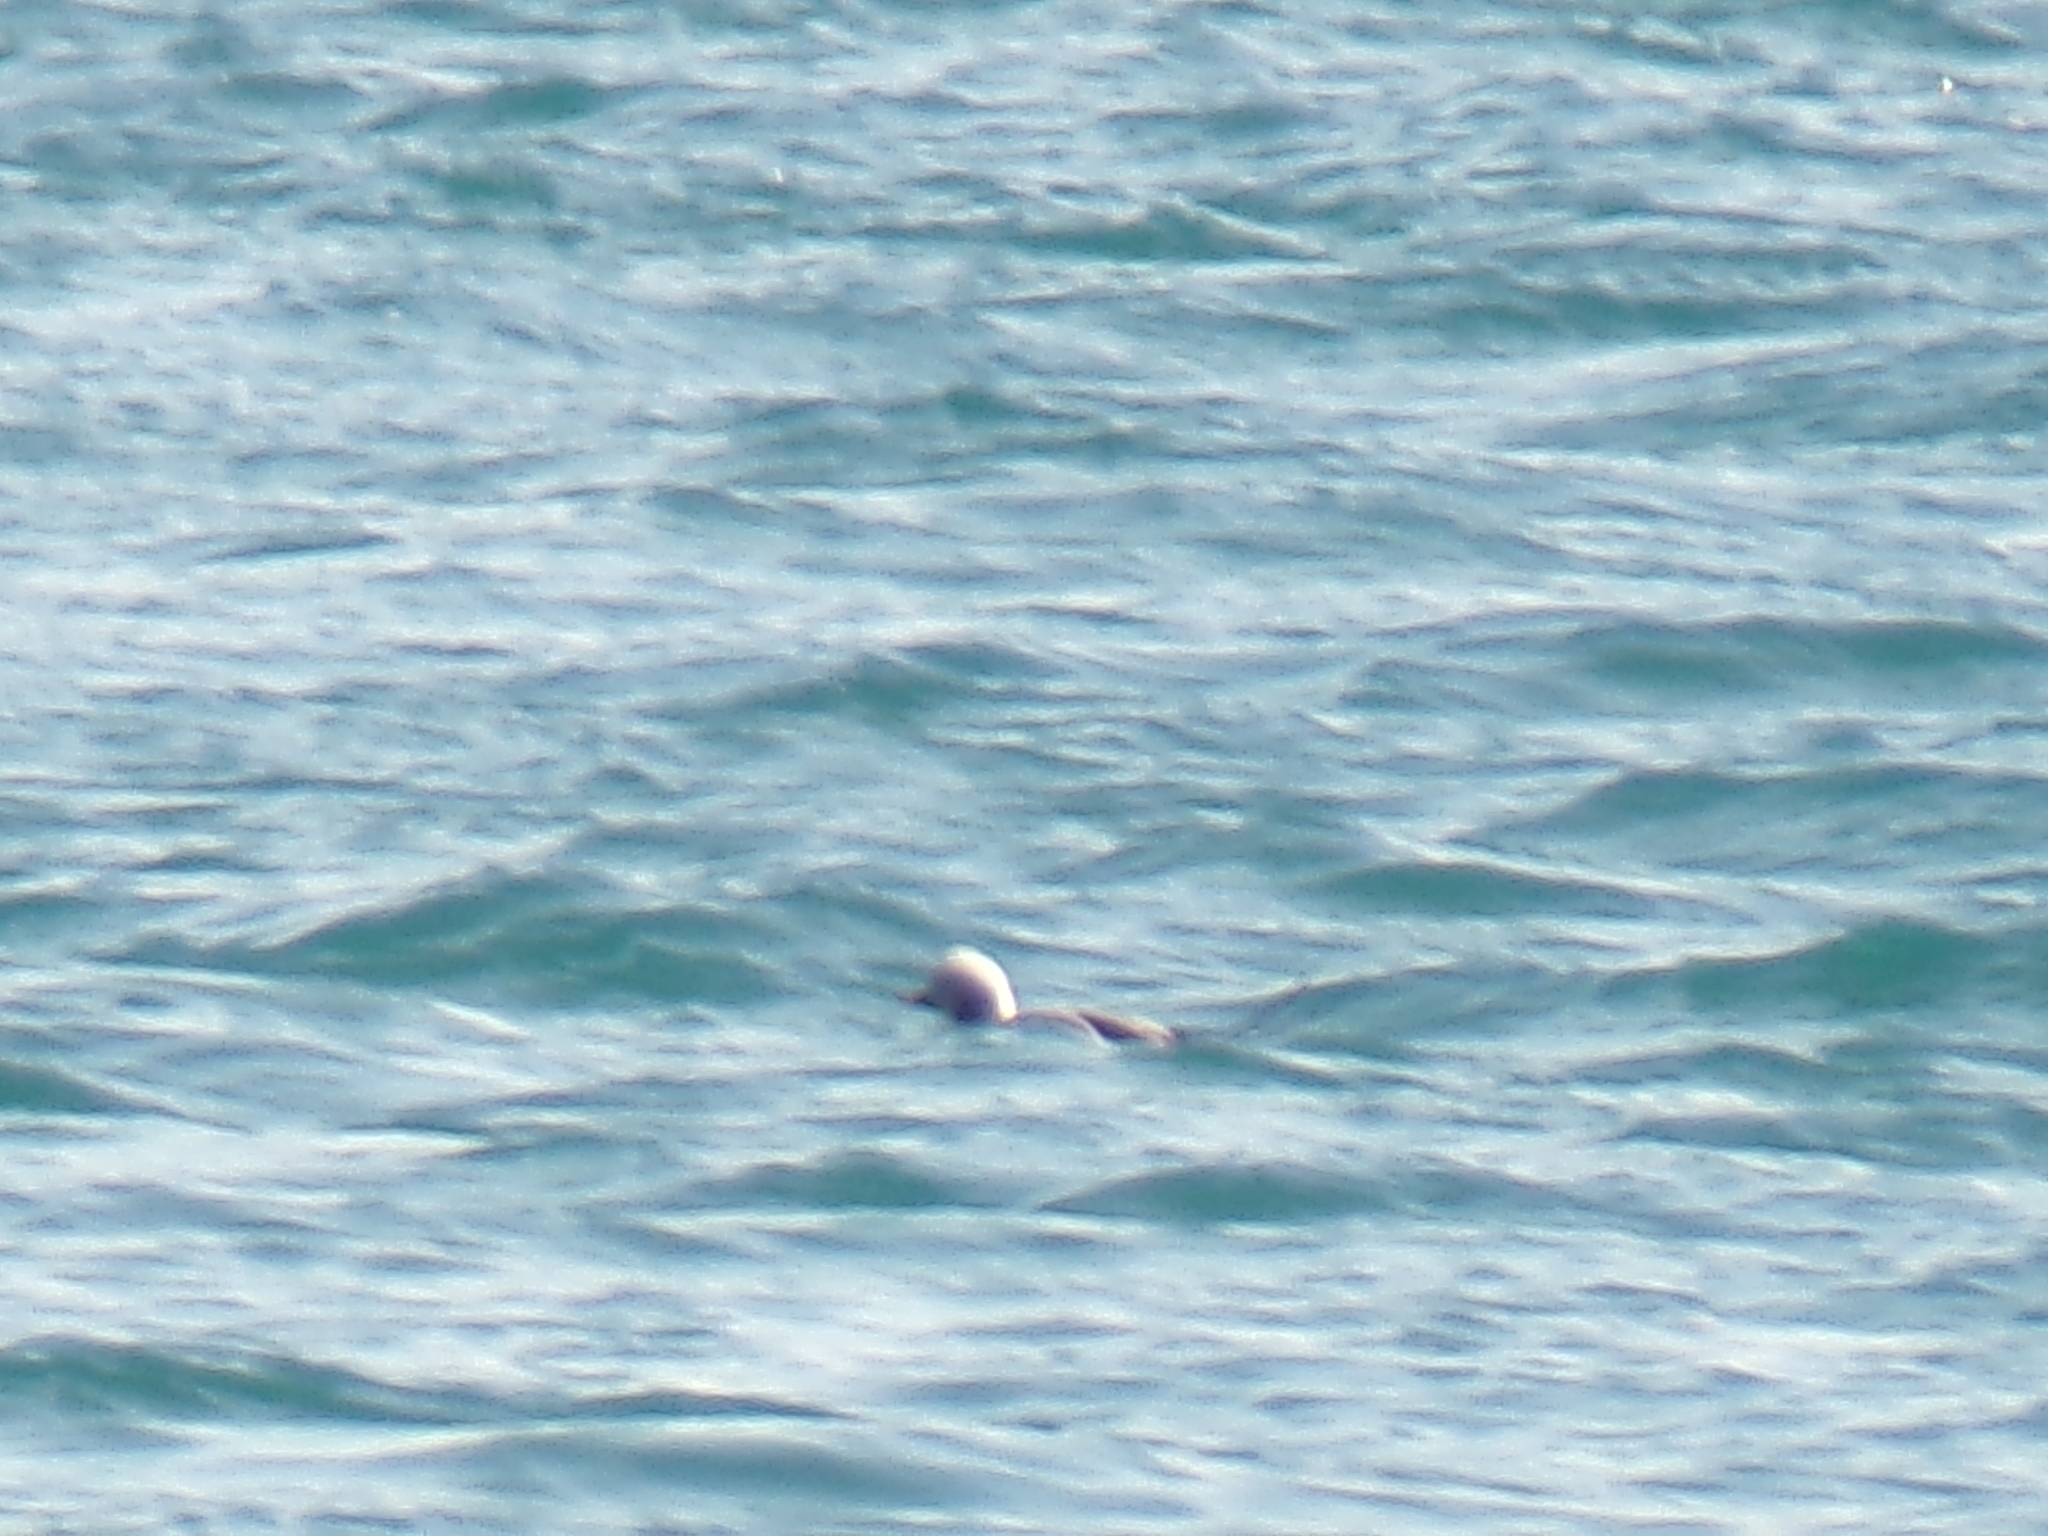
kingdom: Animalia
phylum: Chordata
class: Aves
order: Anseriformes
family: Anatidae
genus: Clangula
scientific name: Clangula hyemalis
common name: Long-tailed duck
